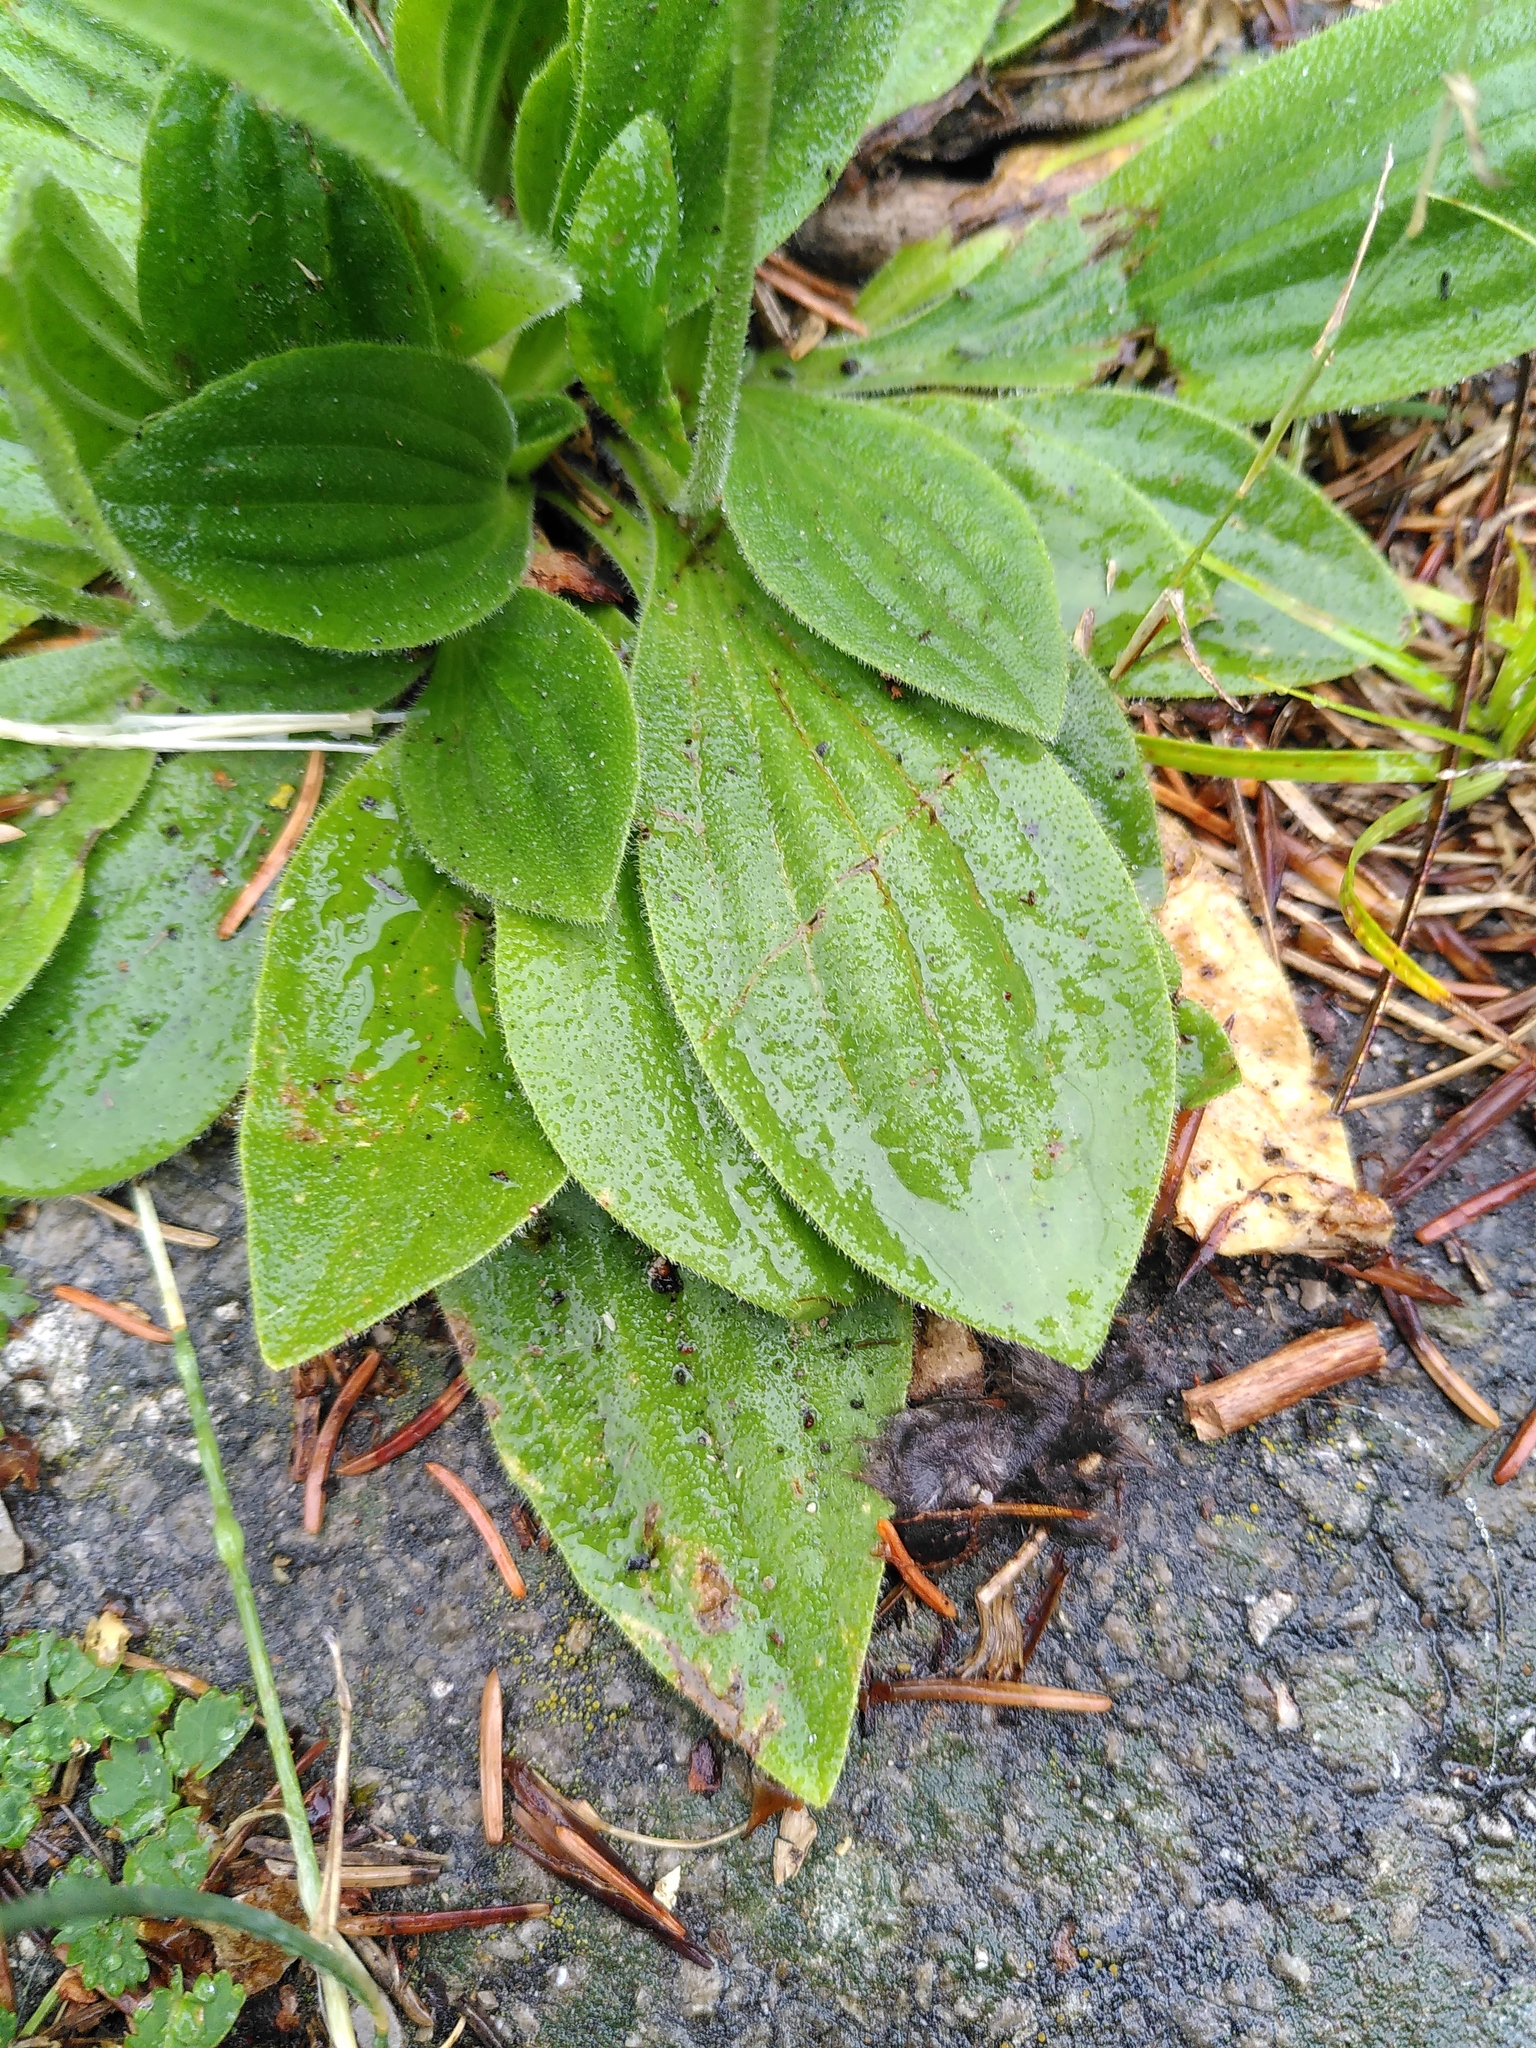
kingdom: Plantae
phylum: Tracheophyta
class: Magnoliopsida
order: Lamiales
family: Plantaginaceae
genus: Plantago
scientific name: Plantago media
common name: Hoary plantain
